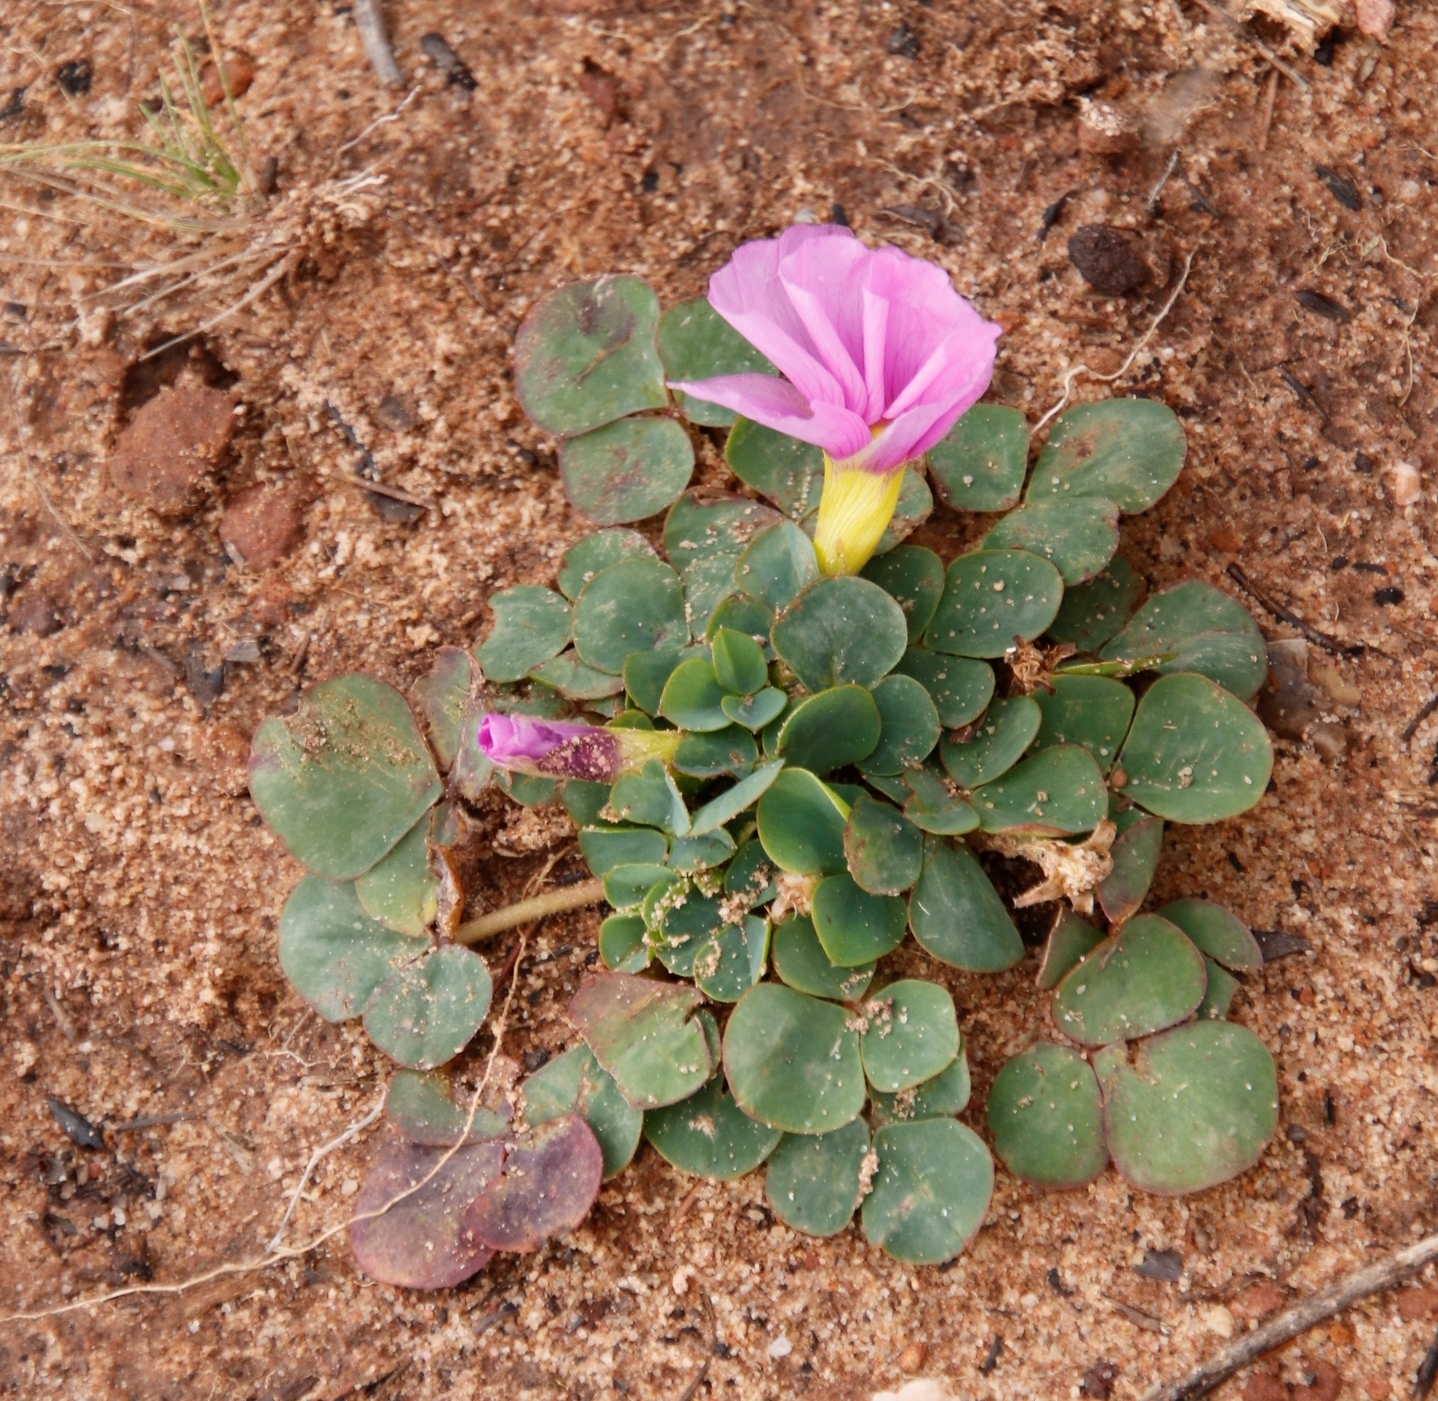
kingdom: Plantae
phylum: Tracheophyta
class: Magnoliopsida
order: Oxalidales
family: Oxalidaceae
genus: Oxalis
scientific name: Oxalis purpurea
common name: Purple woodsorrel
